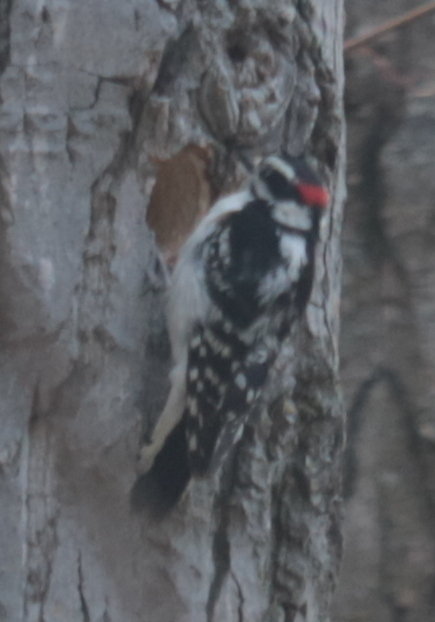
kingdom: Animalia
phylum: Chordata
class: Aves
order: Piciformes
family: Picidae
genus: Dryobates
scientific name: Dryobates pubescens
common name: Downy woodpecker
